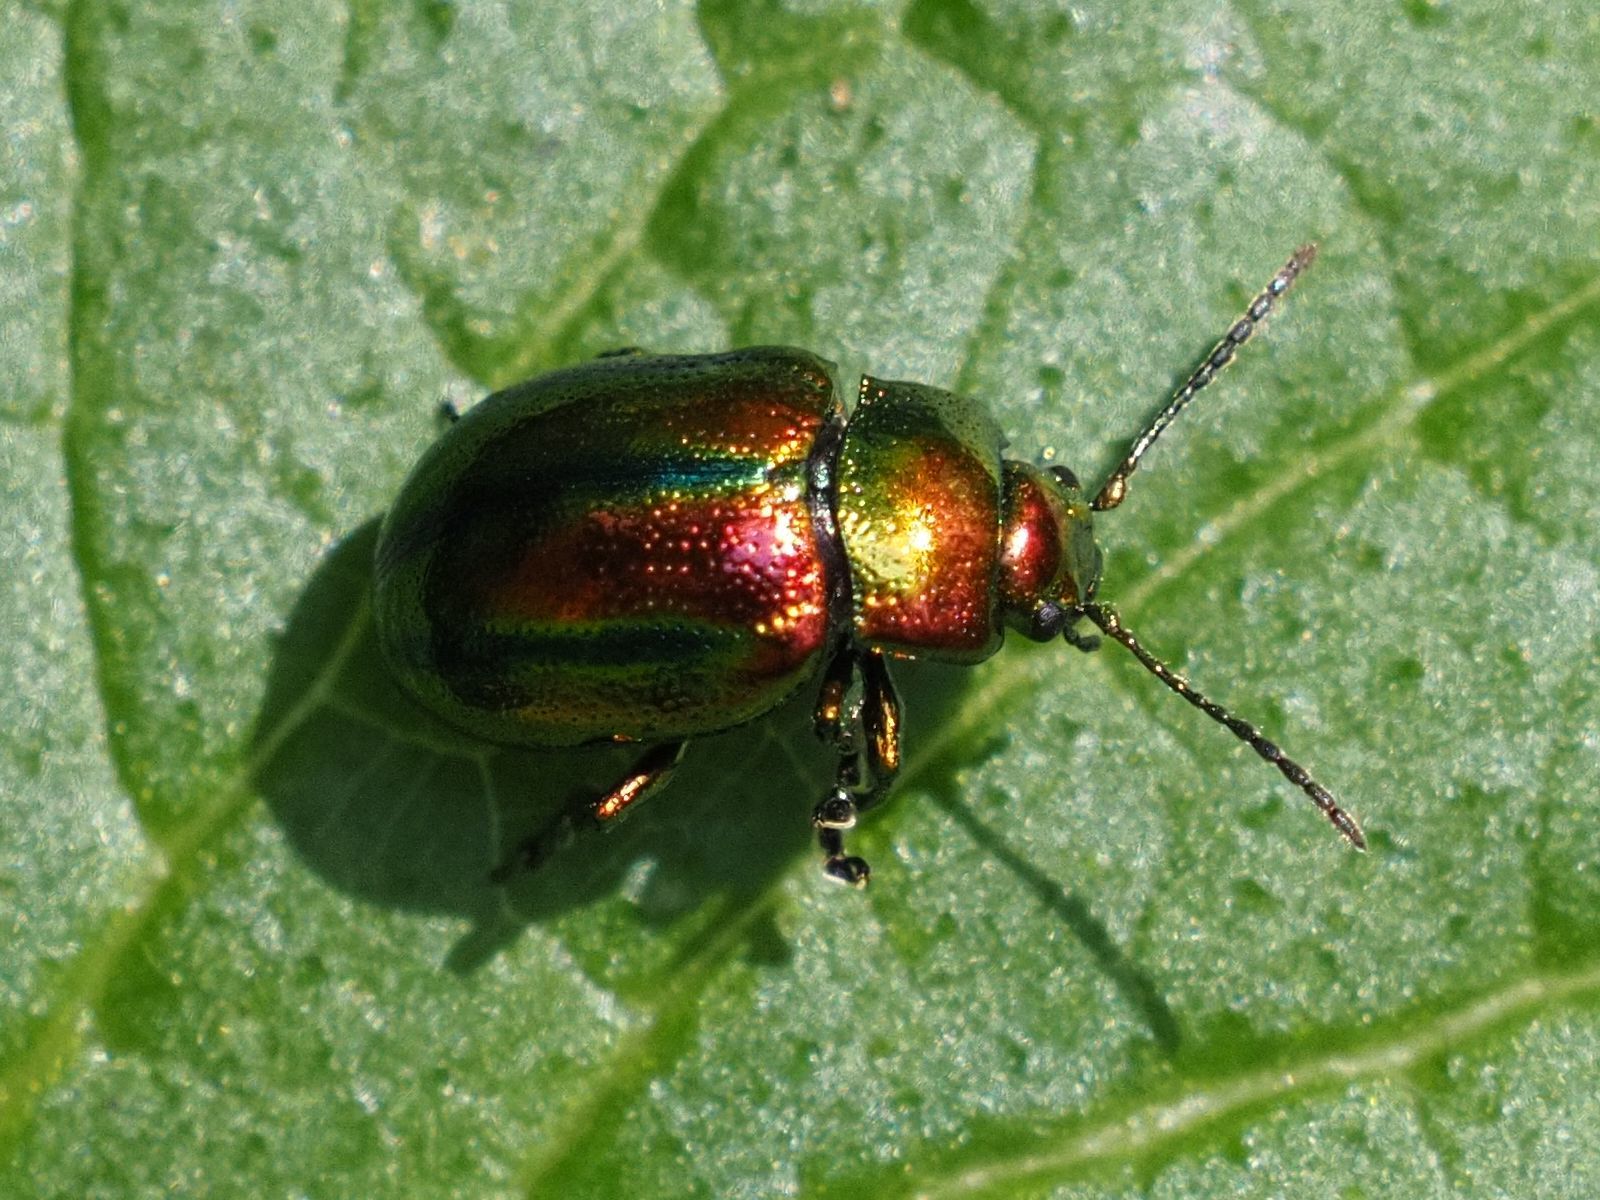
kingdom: Animalia
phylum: Arthropoda
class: Insecta
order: Coleoptera
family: Chrysomelidae
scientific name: Chrysomelidae
